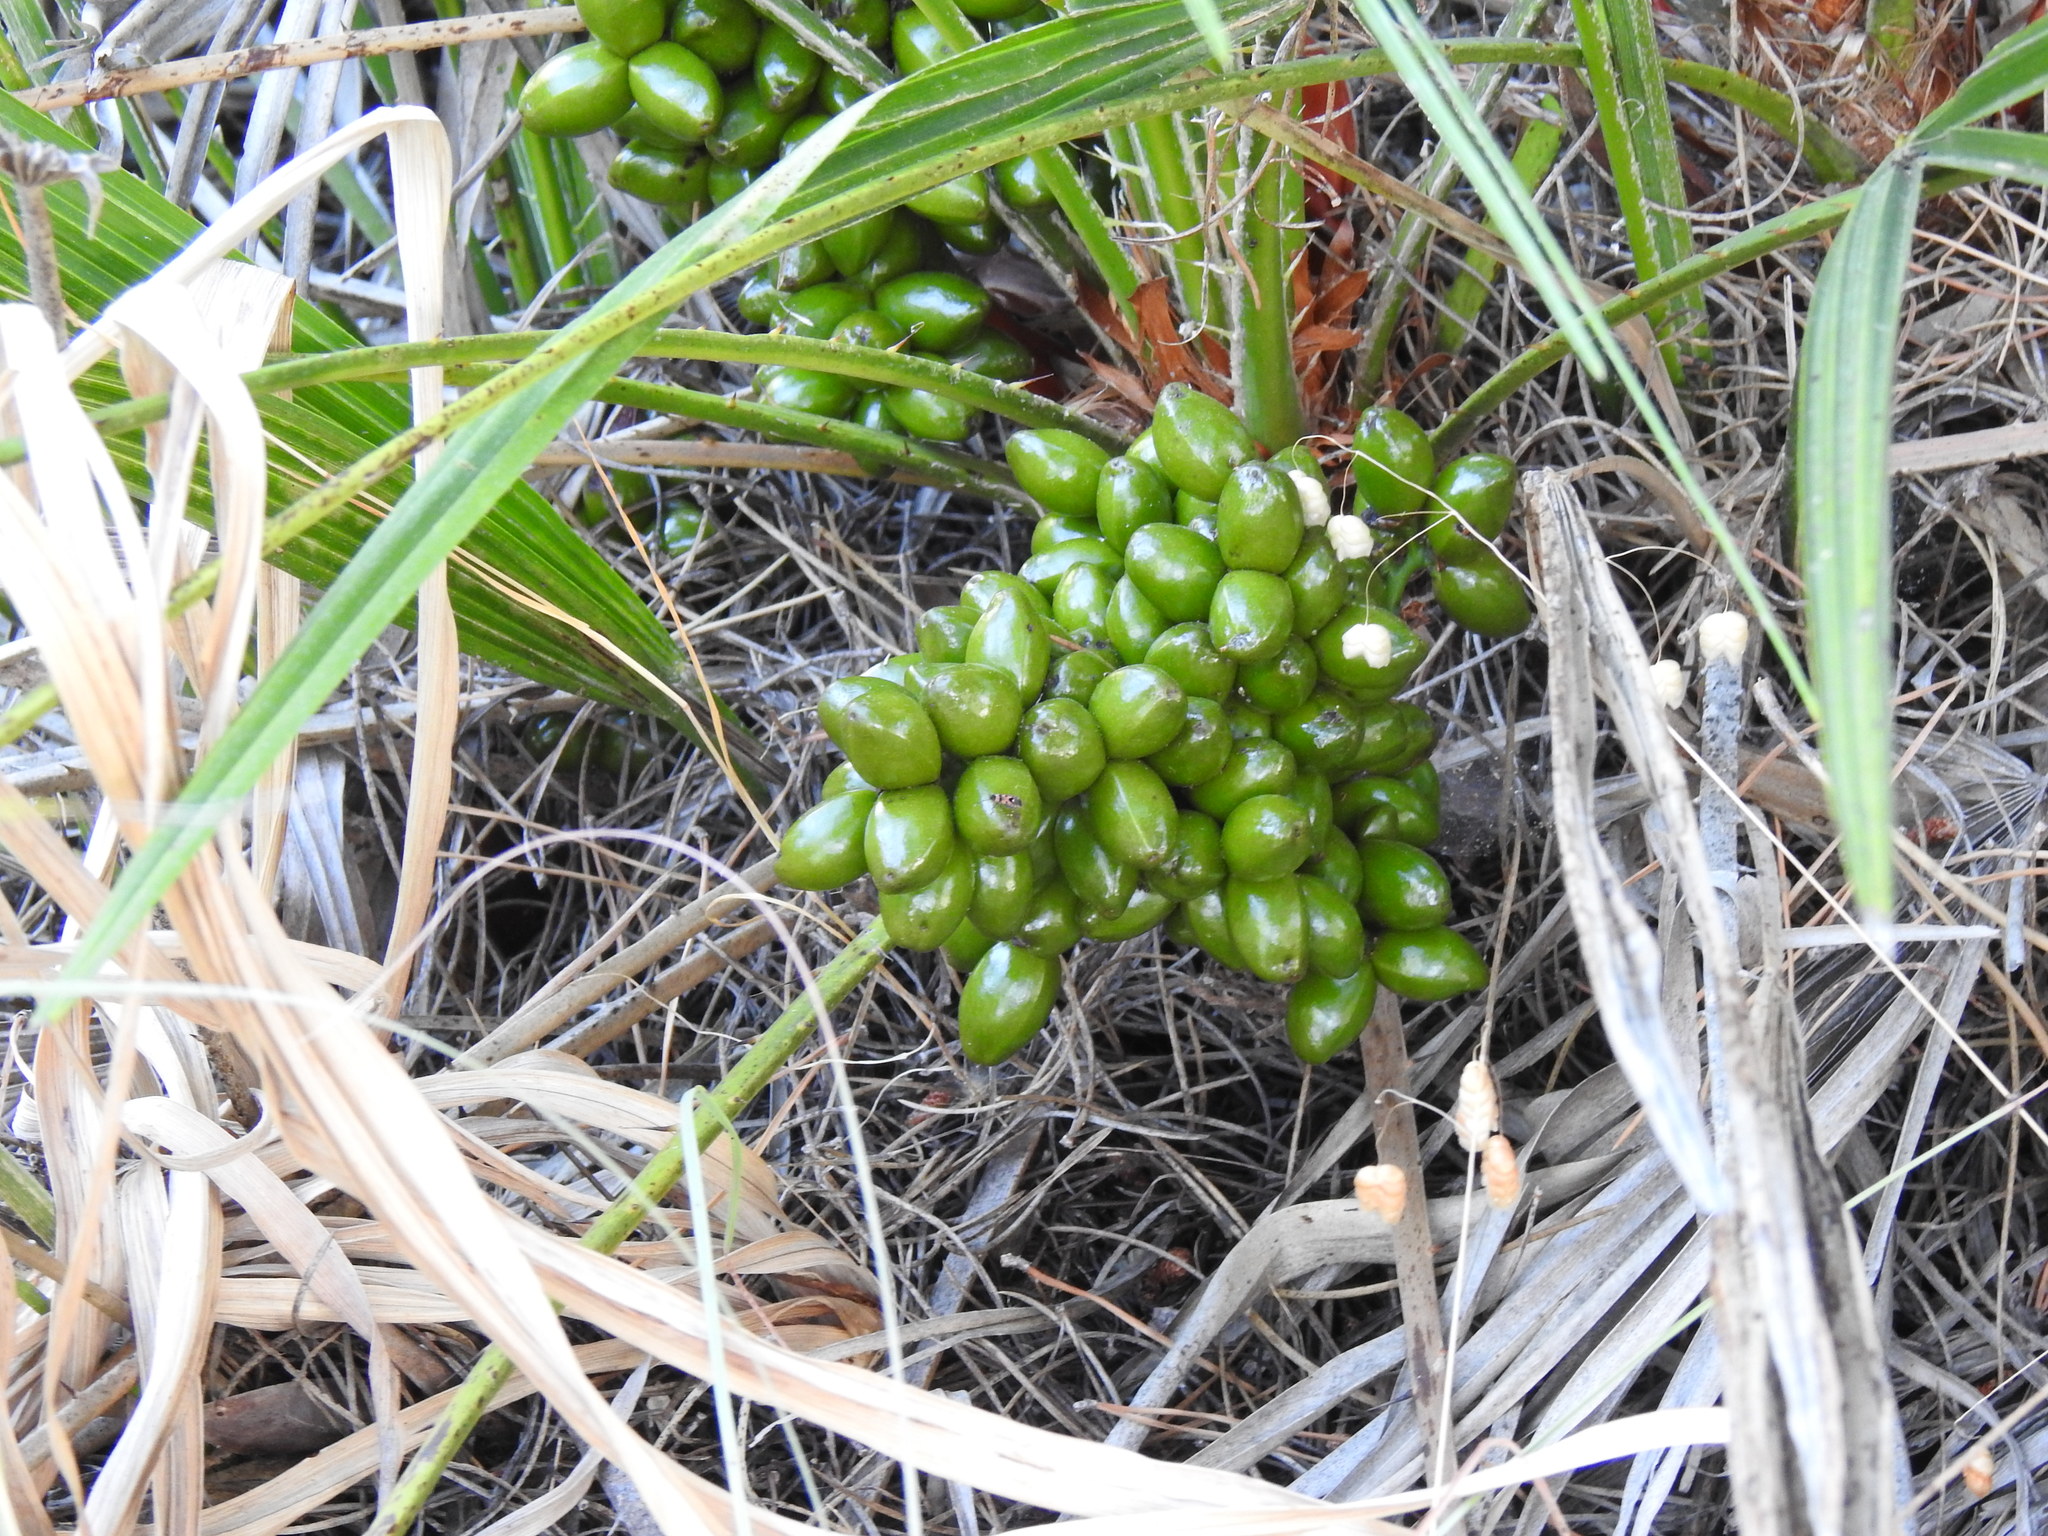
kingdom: Plantae
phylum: Tracheophyta
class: Liliopsida
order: Arecales
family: Arecaceae
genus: Chamaerops
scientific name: Chamaerops humilis
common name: Dwarf fan palm
